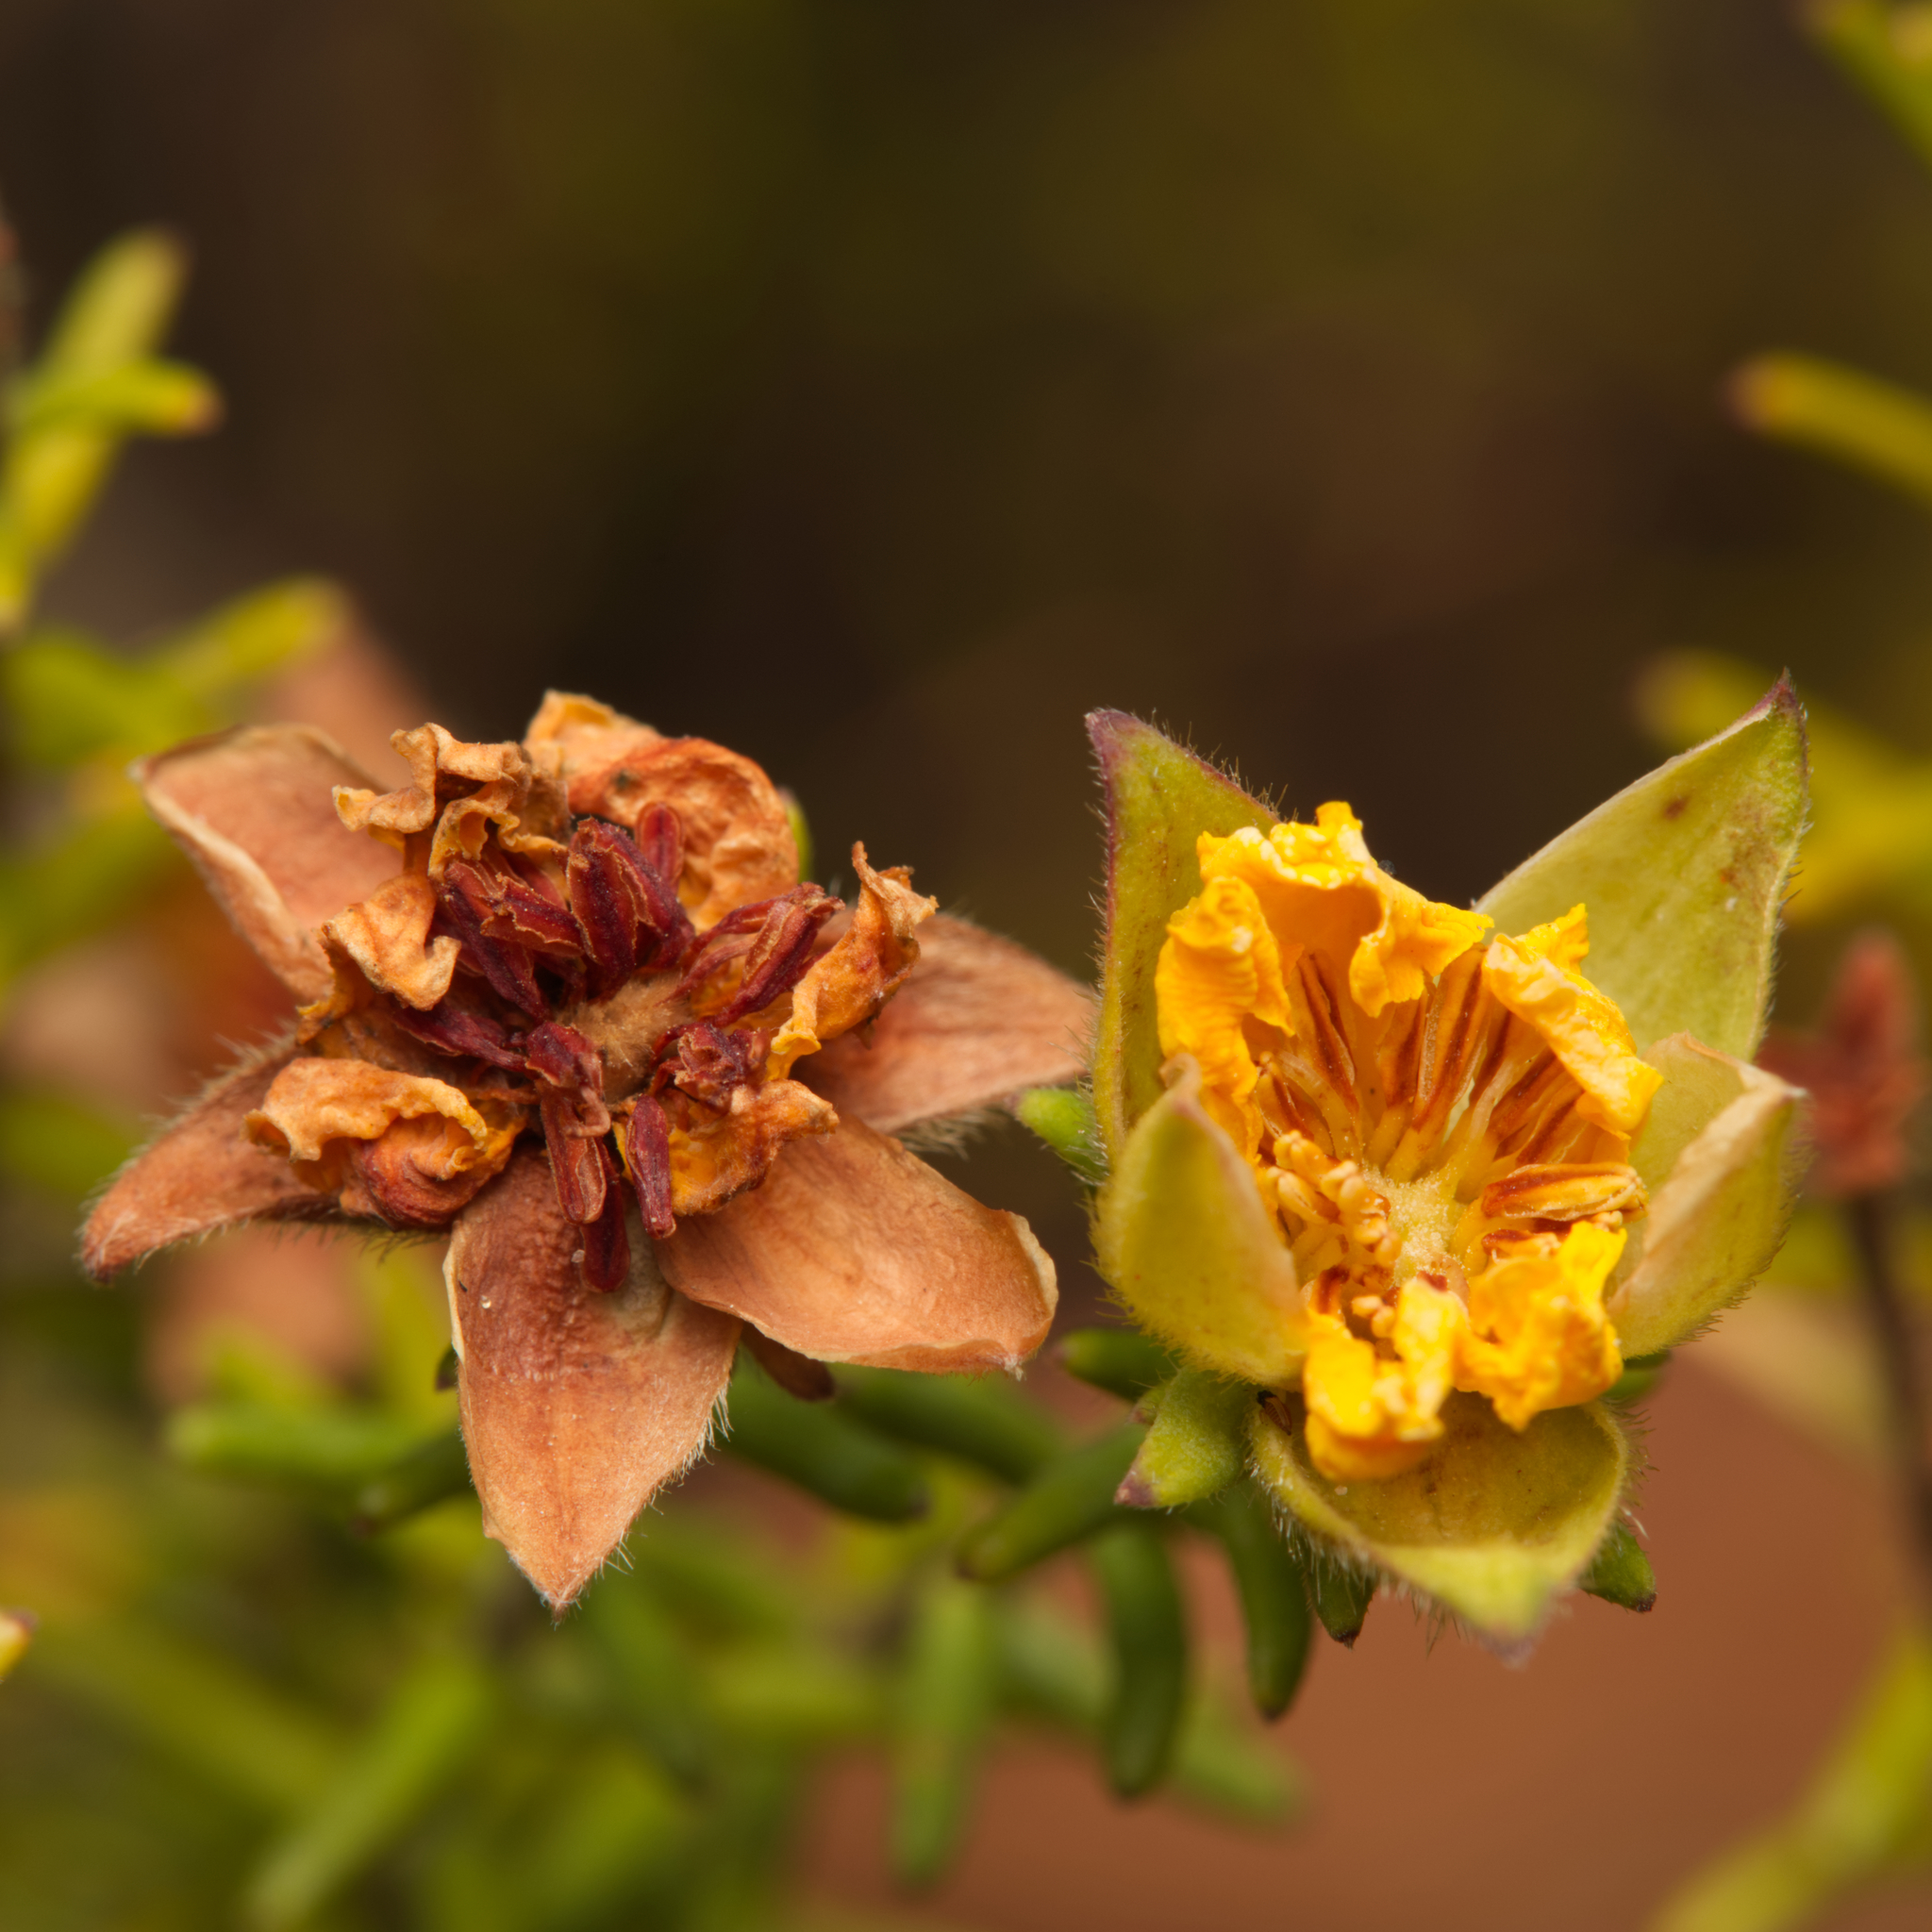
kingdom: Plantae
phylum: Tracheophyta
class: Magnoliopsida
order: Dilleniales
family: Dilleniaceae
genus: Hibbertia
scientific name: Hibbertia vestita
